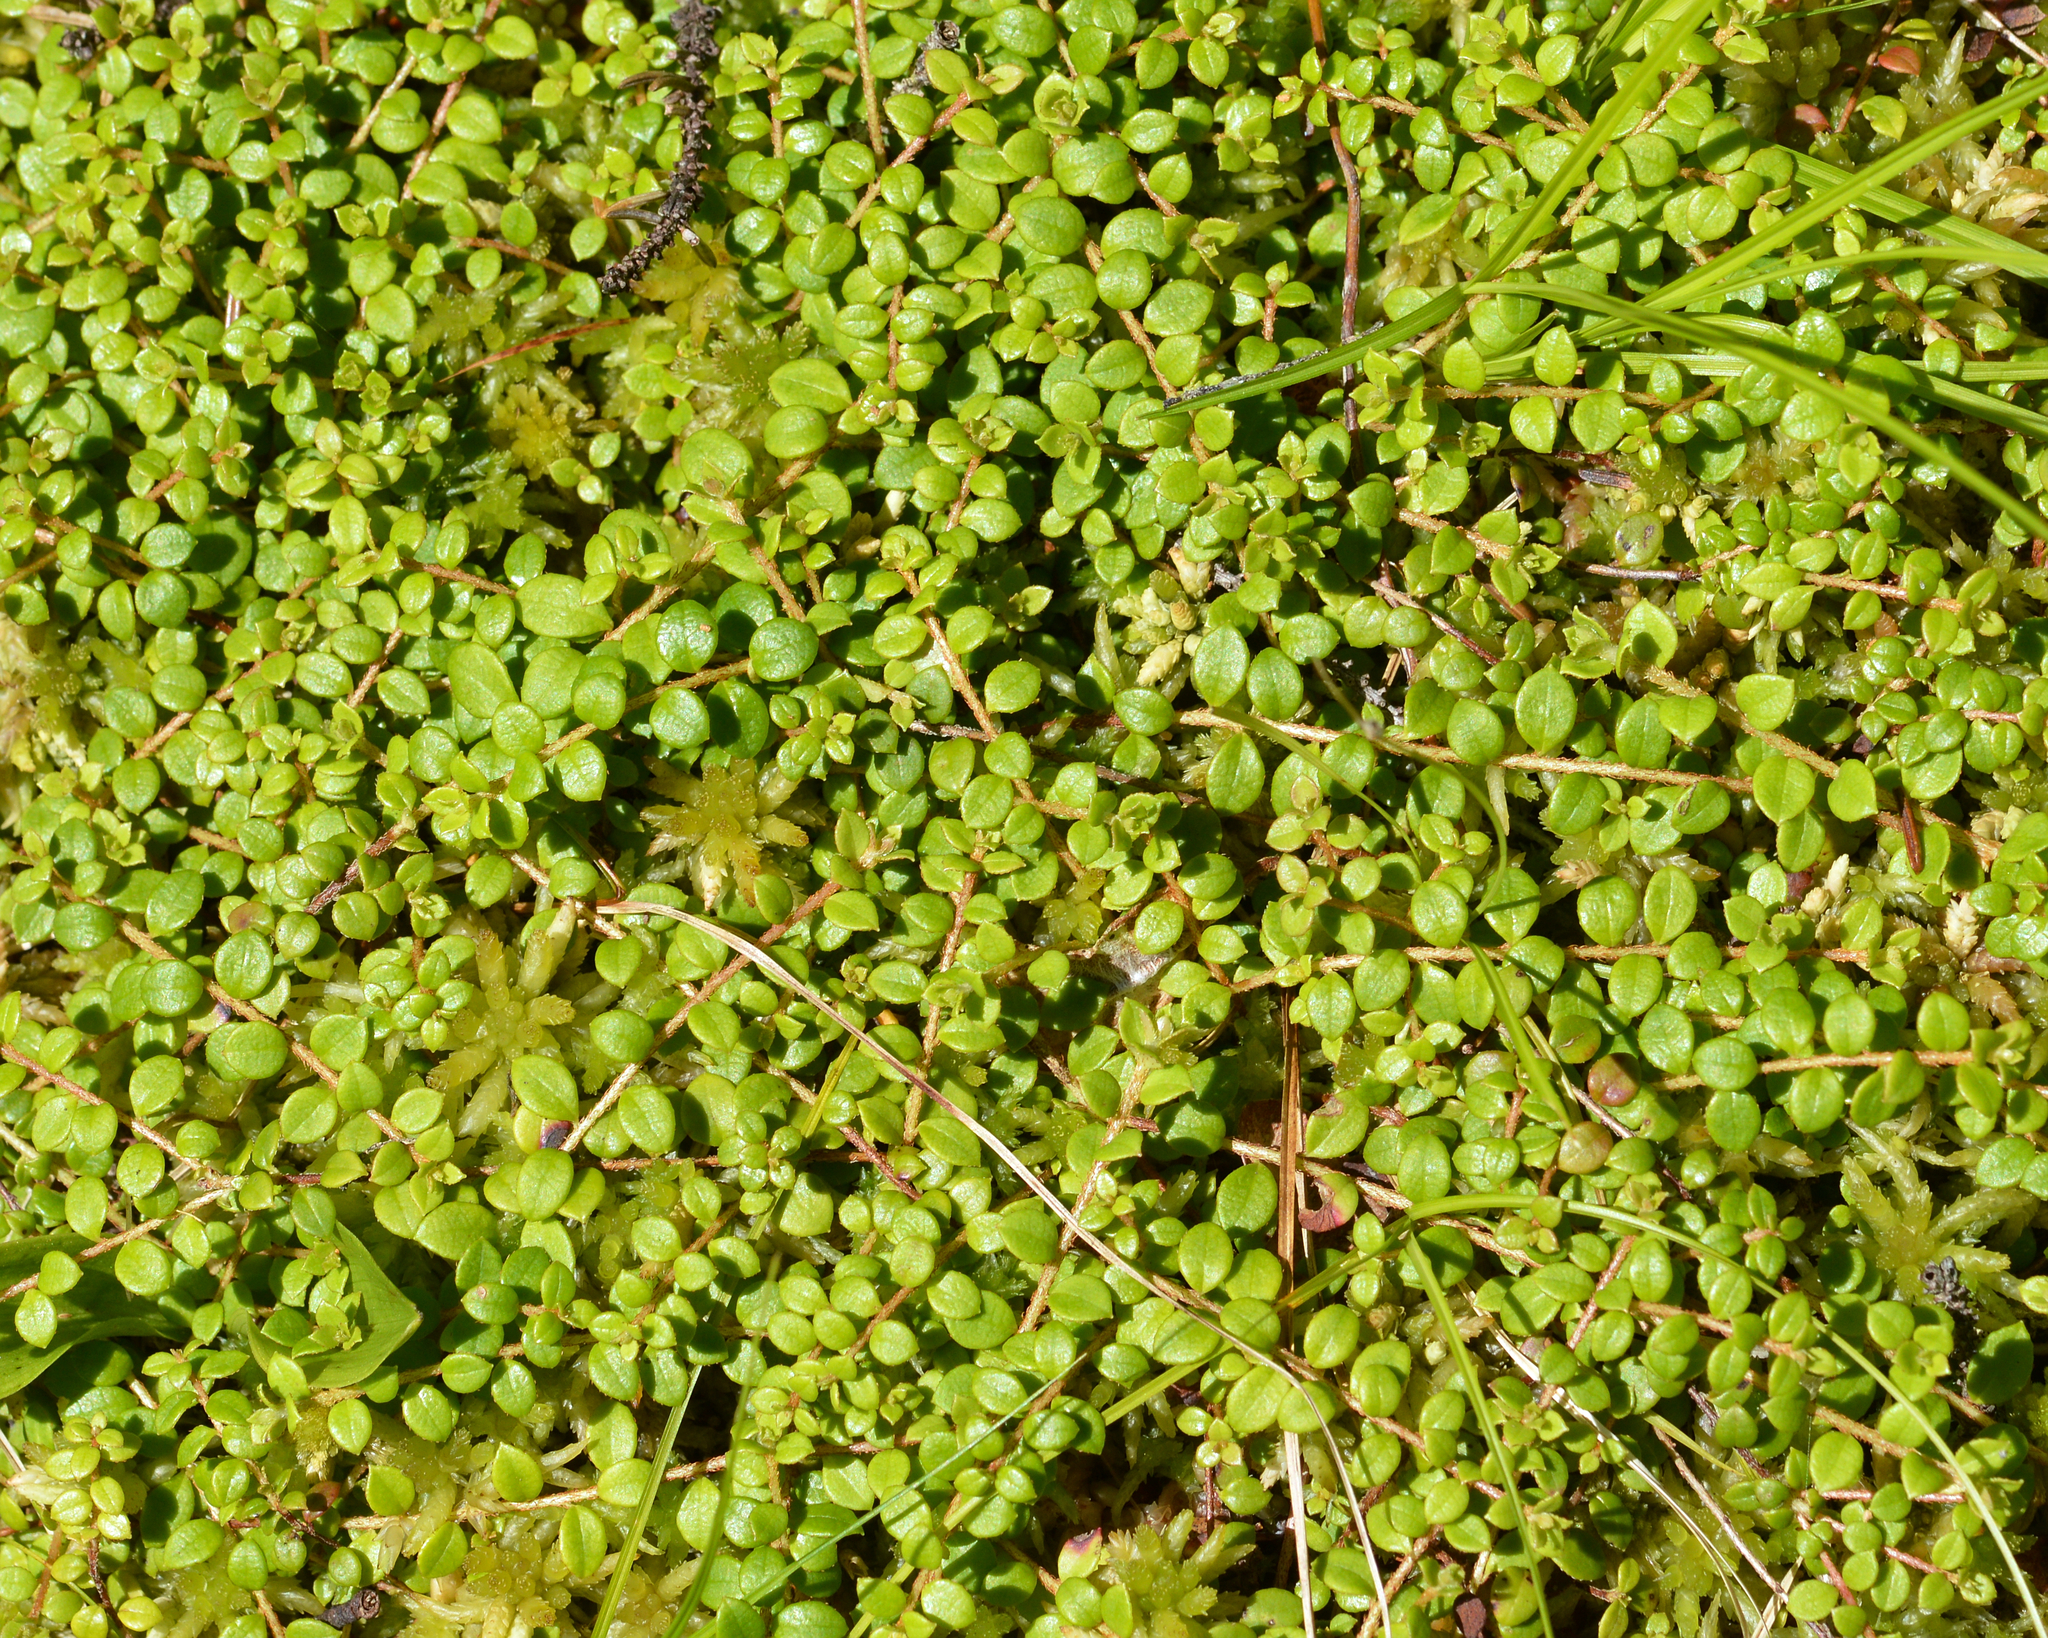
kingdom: Plantae
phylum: Tracheophyta
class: Magnoliopsida
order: Ericales
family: Ericaceae
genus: Gaultheria
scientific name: Gaultheria hispidula
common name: Cancer wintergreen
